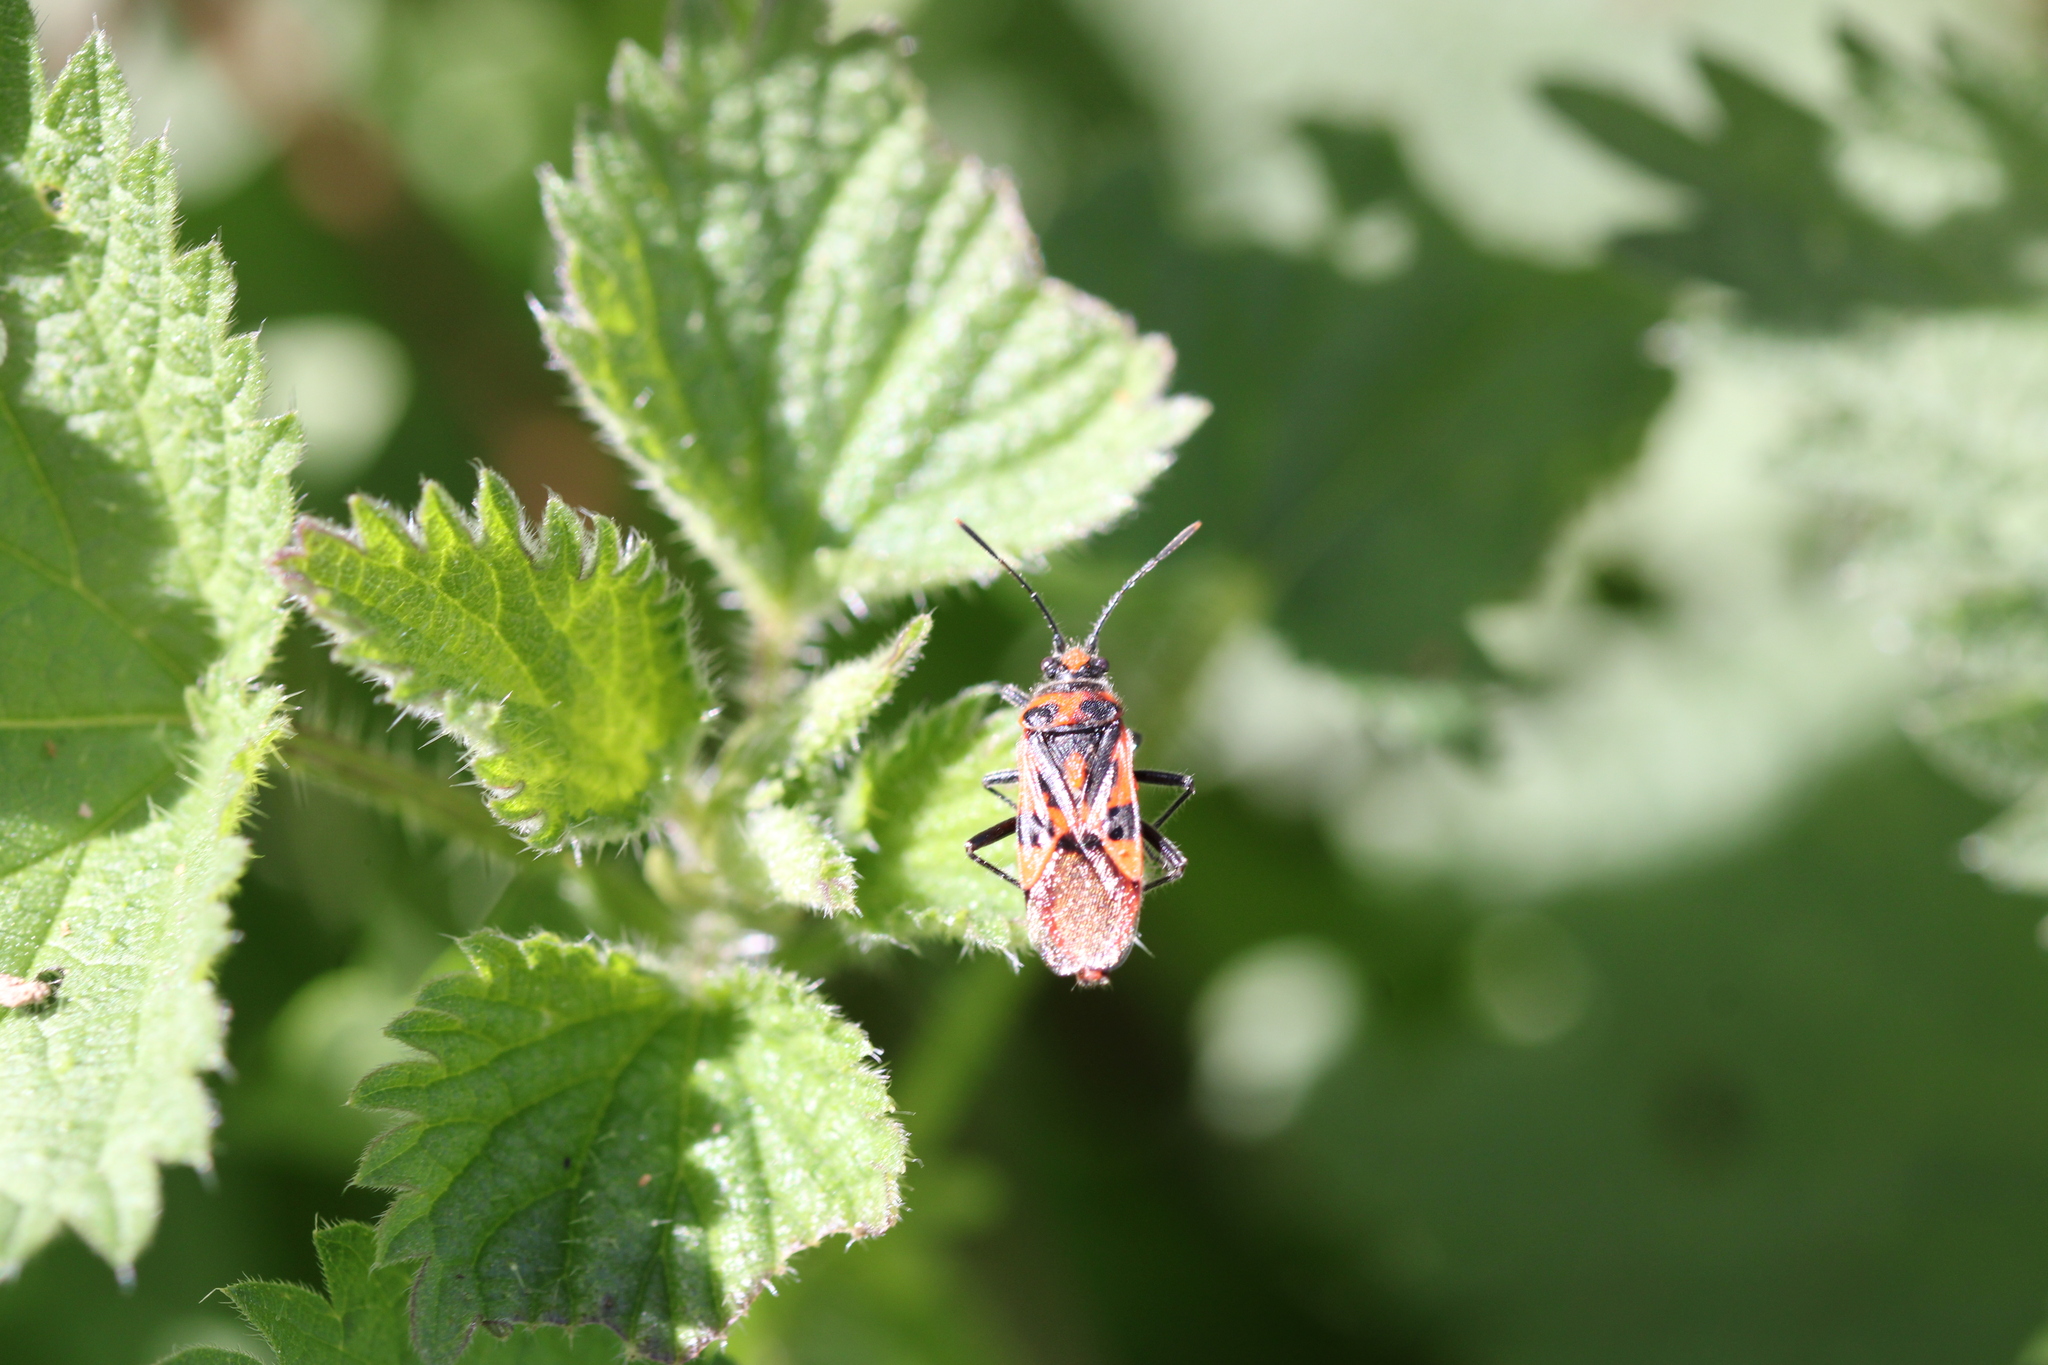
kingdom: Animalia
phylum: Arthropoda
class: Insecta
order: Hemiptera
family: Rhopalidae
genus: Corizus
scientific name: Corizus hyoscyami
